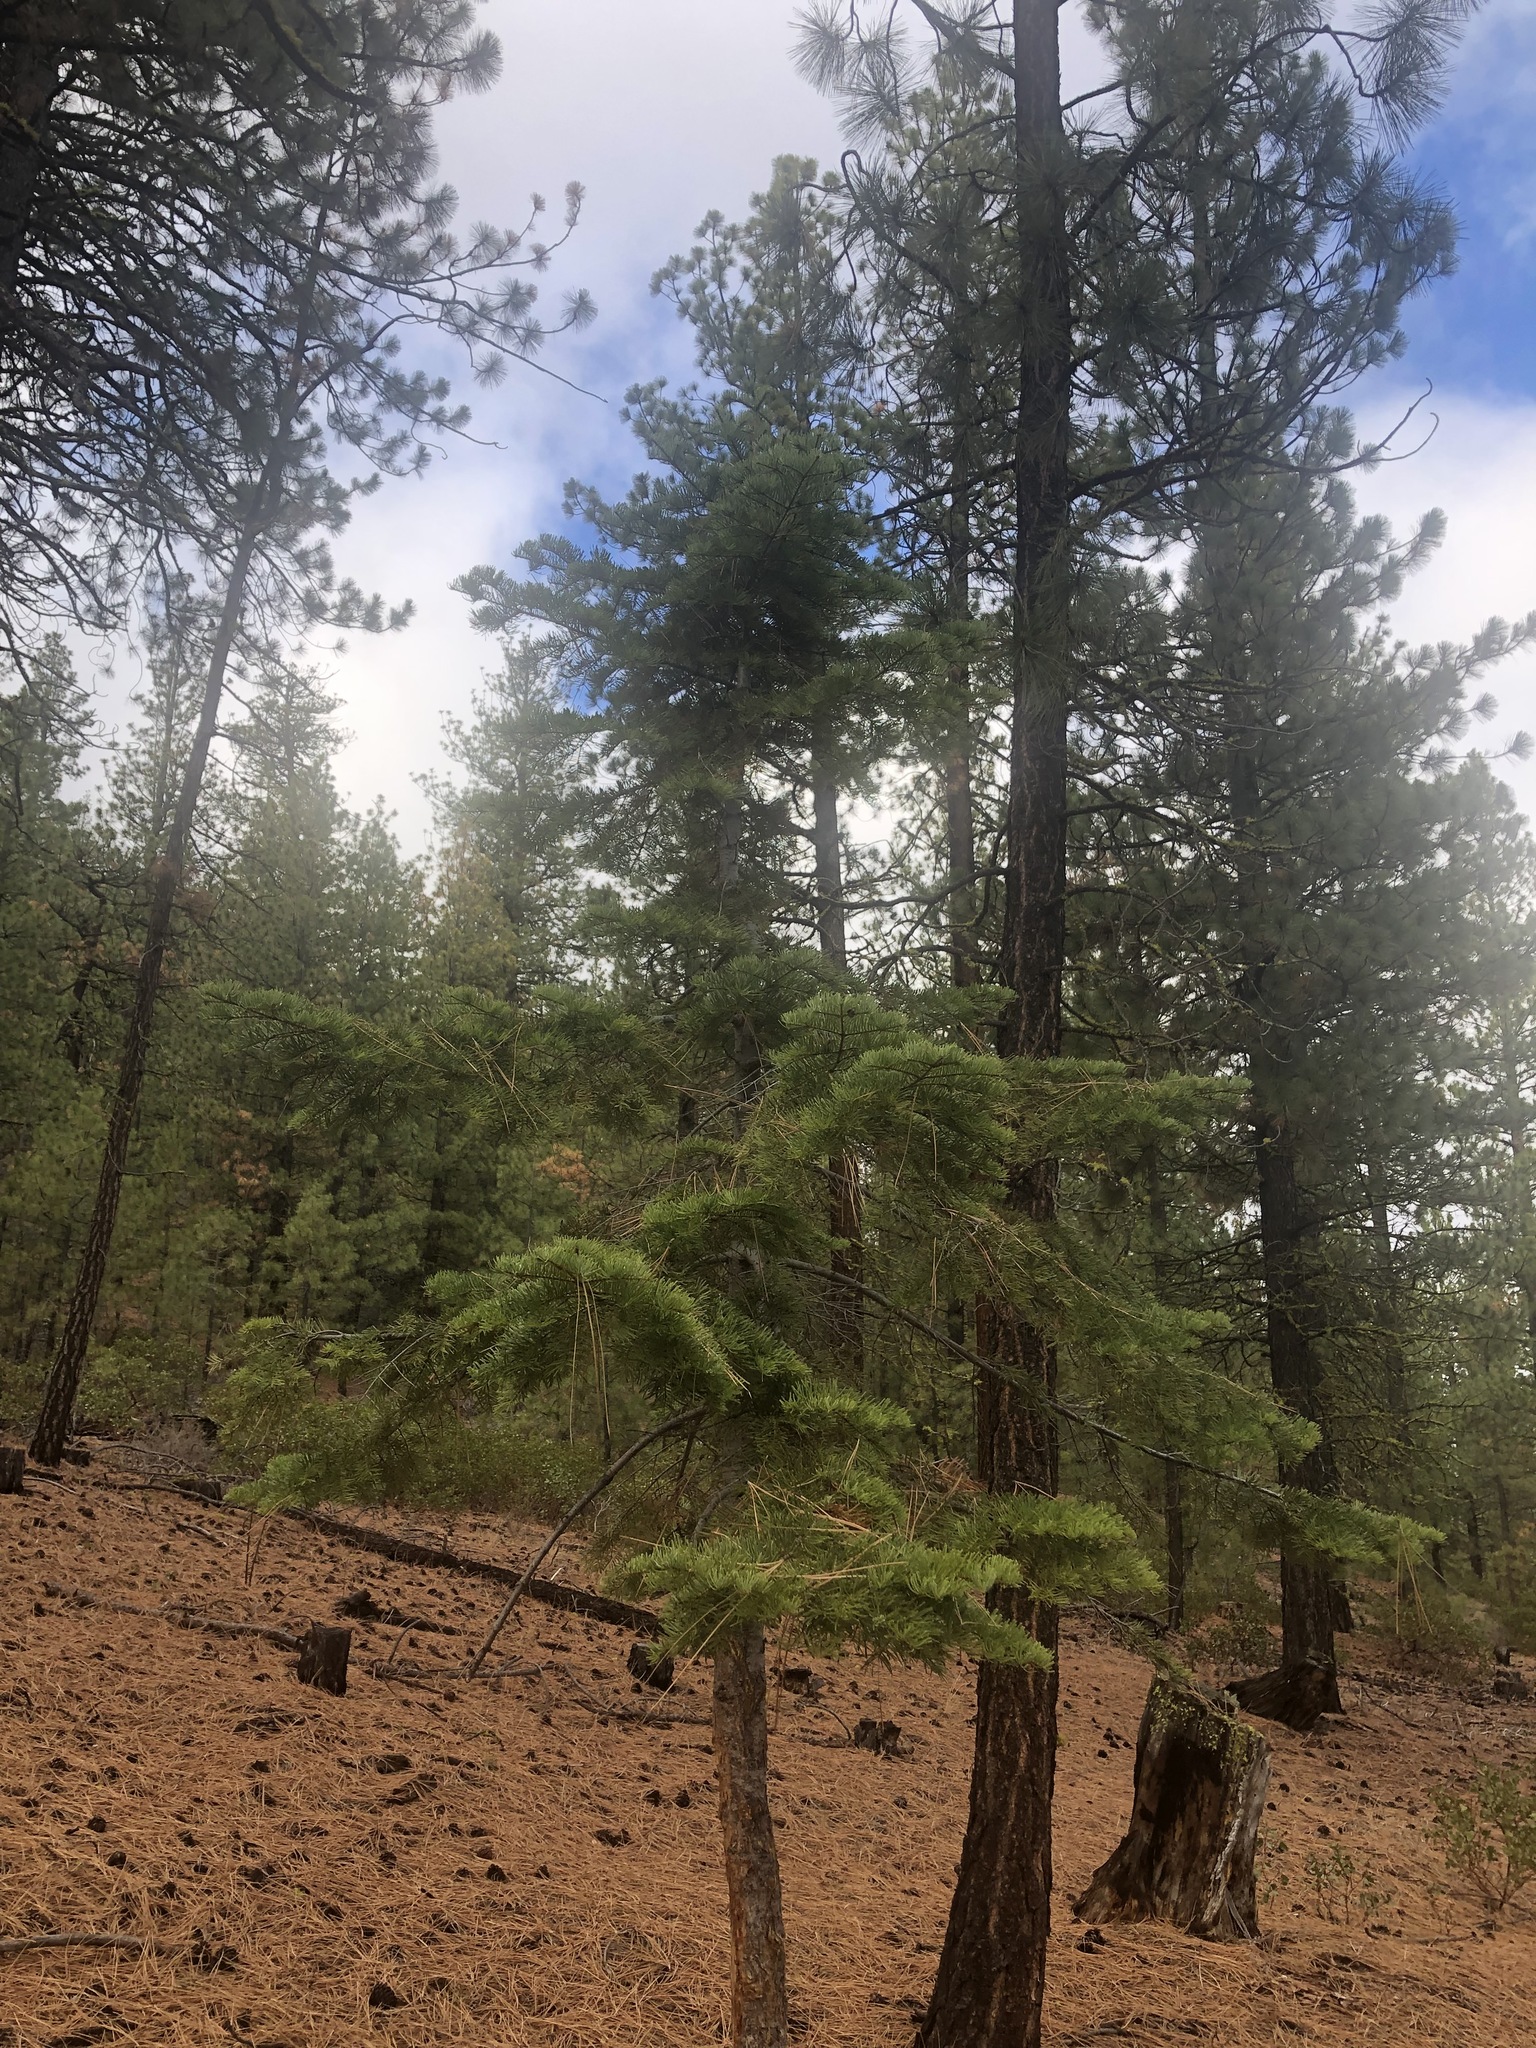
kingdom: Plantae
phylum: Tracheophyta
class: Pinopsida
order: Pinales
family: Pinaceae
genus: Abies
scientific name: Abies concolor
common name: Colorado fir
